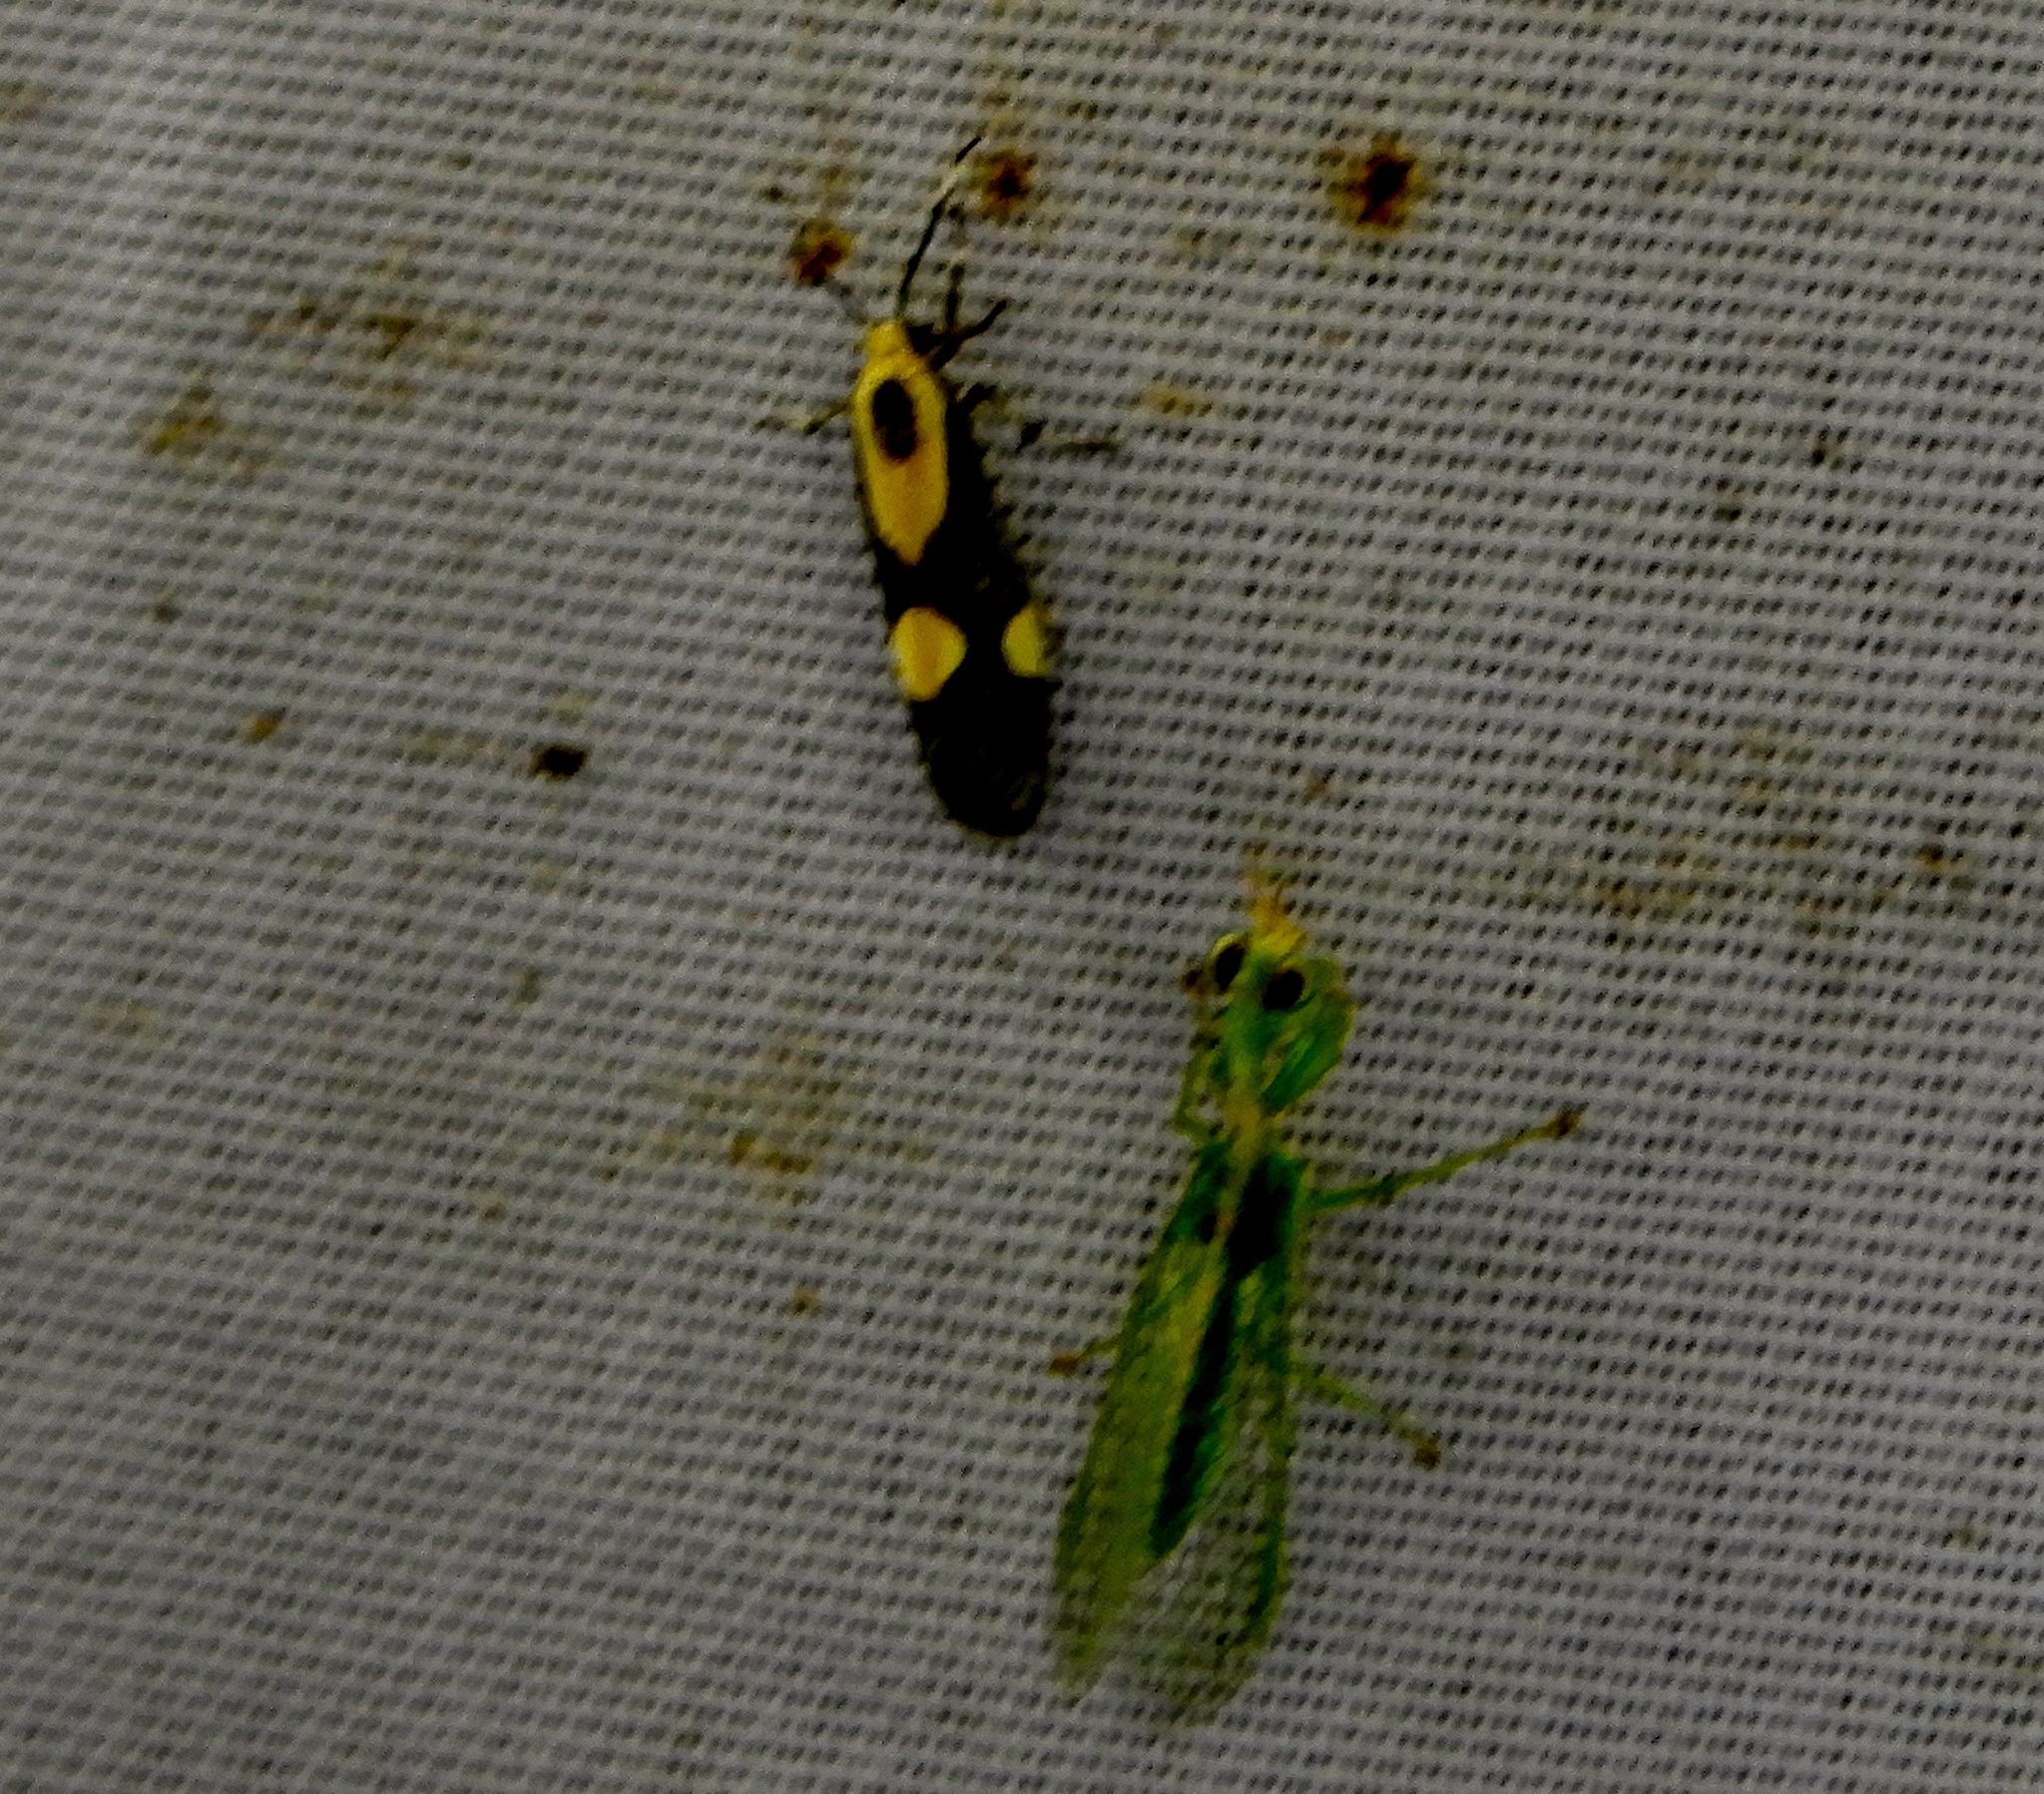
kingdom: Animalia
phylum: Arthropoda
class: Insecta
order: Lepidoptera
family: Erebidae
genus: Cisthene
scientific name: Cisthene polyzona
